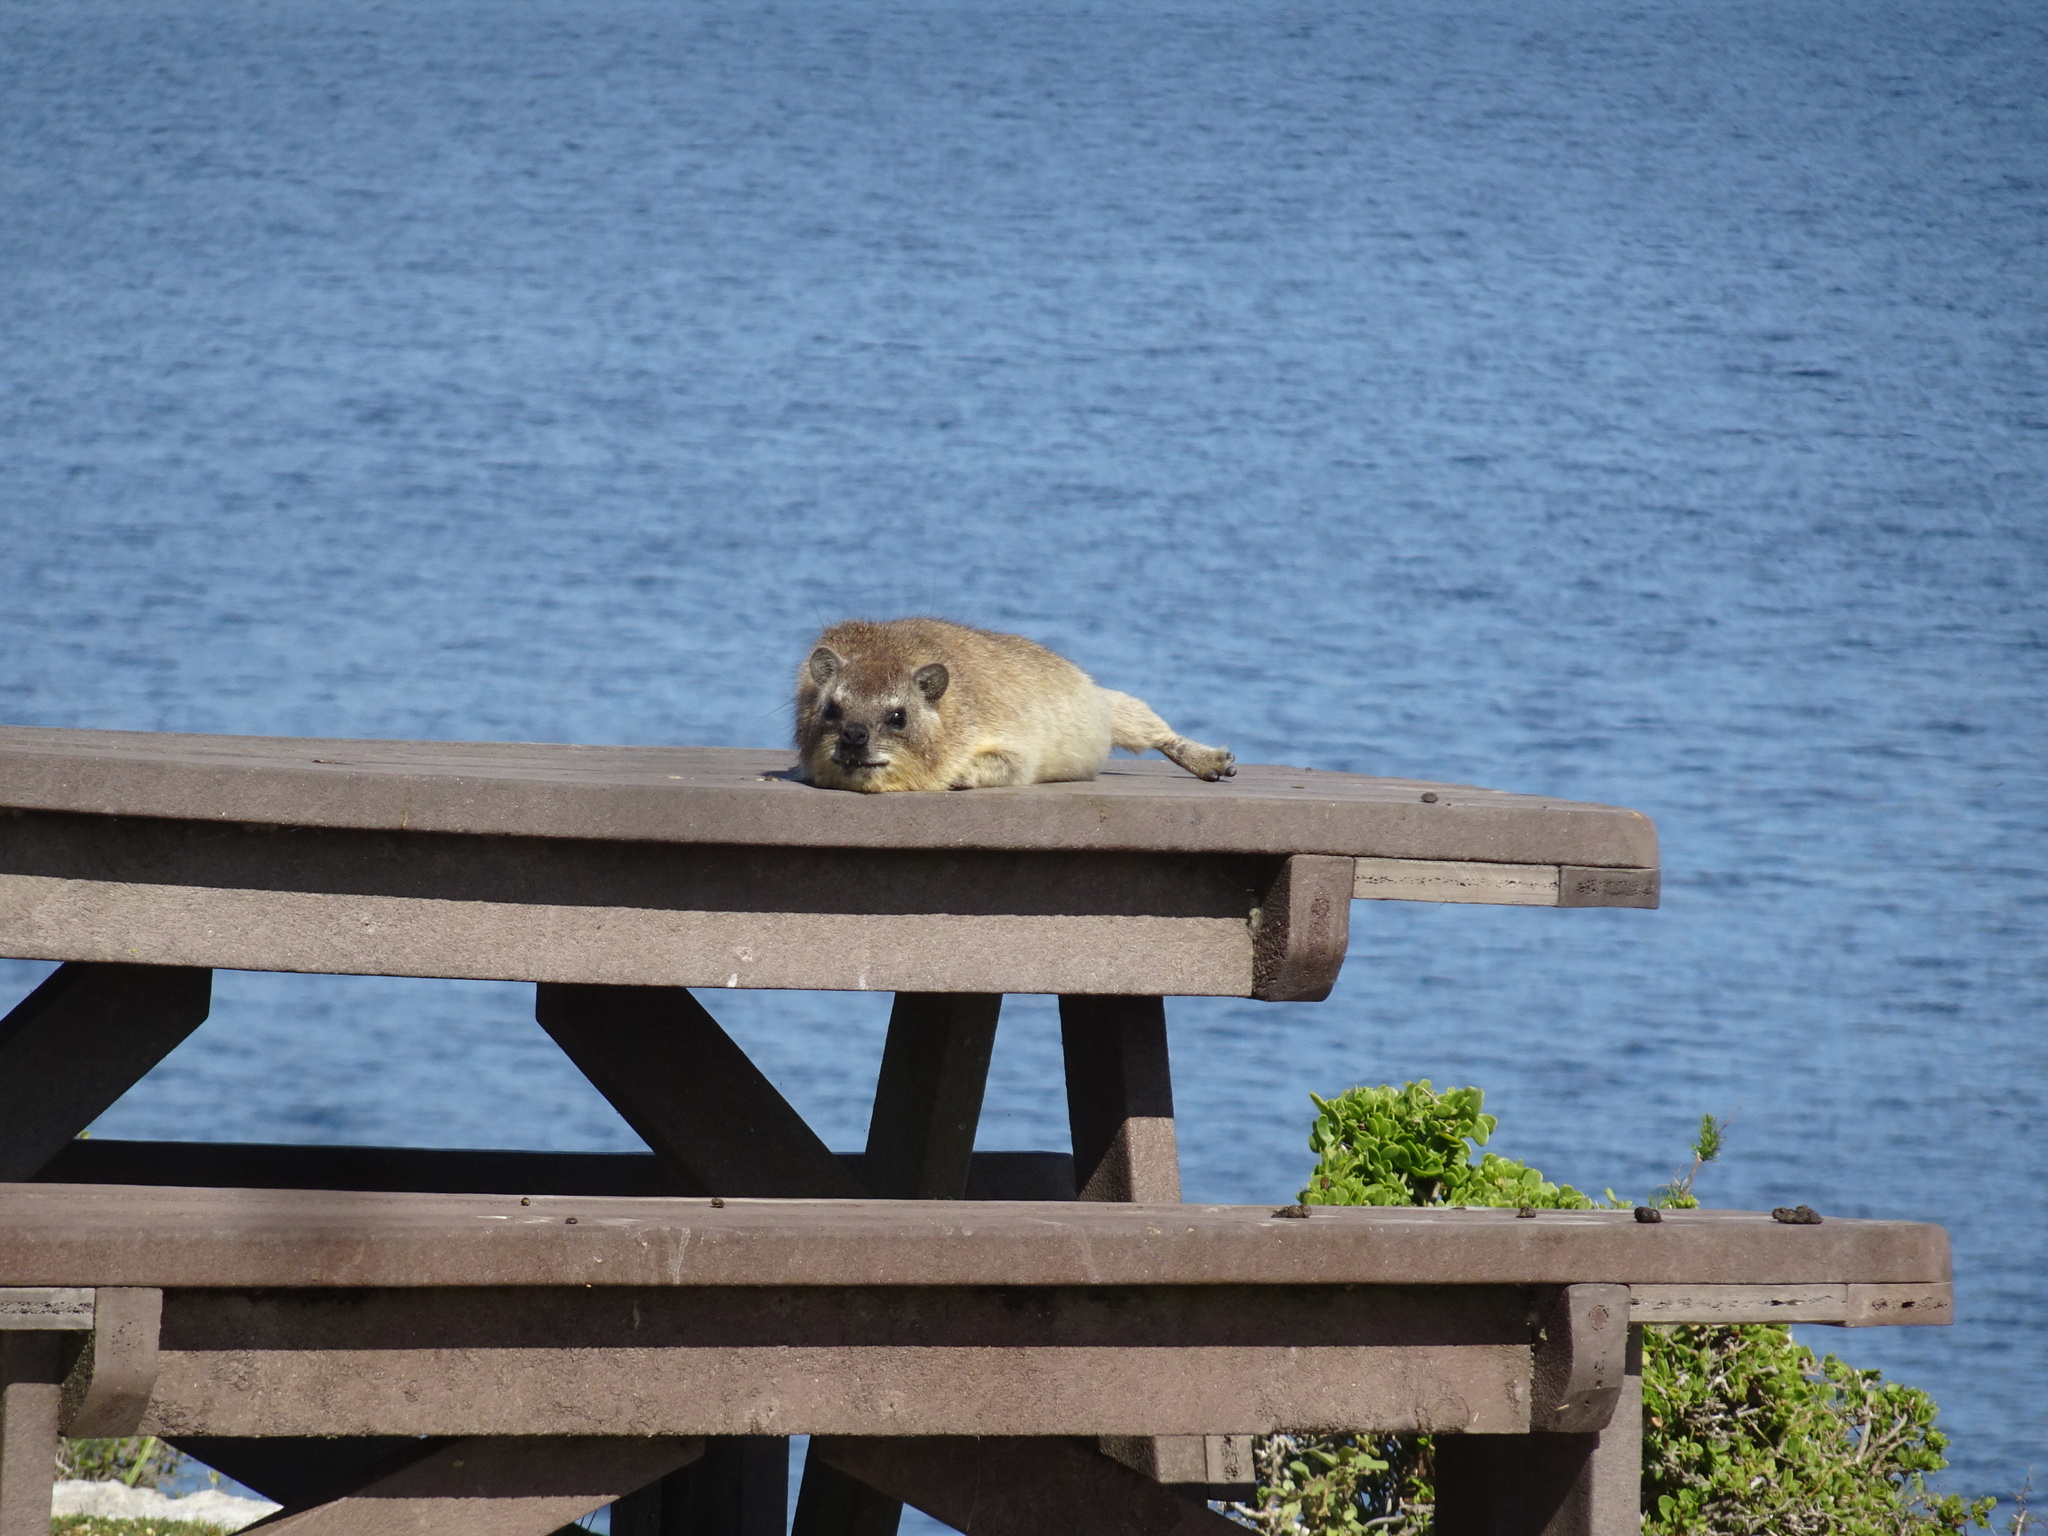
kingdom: Animalia
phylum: Chordata
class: Mammalia
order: Hyracoidea
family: Procaviidae
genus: Procavia
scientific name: Procavia capensis
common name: Rock hyrax
